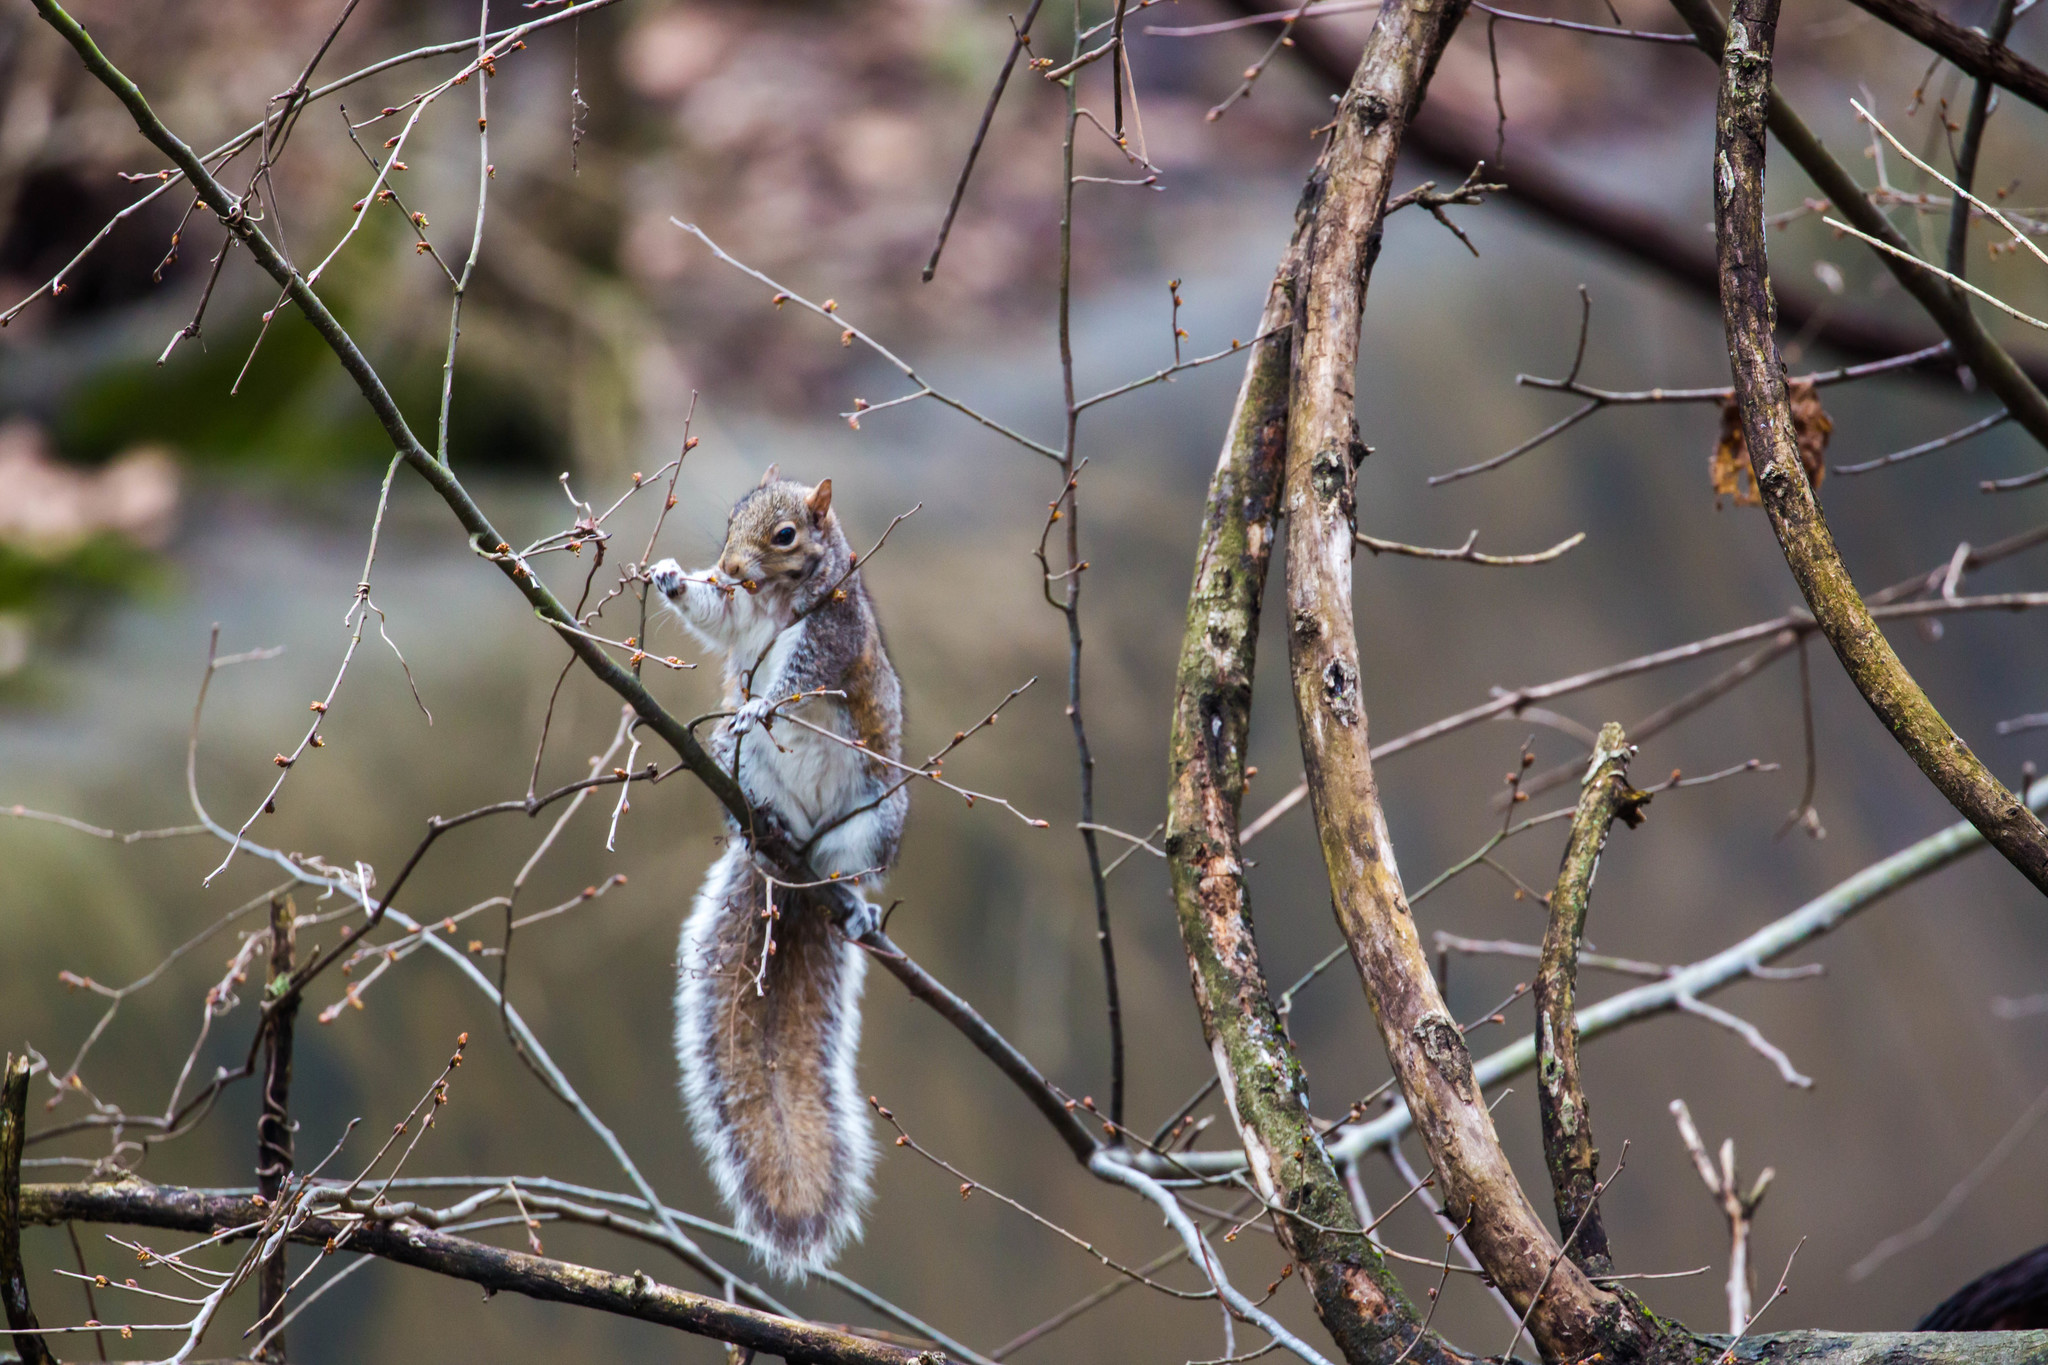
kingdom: Animalia
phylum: Chordata
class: Mammalia
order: Rodentia
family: Sciuridae
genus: Sciurus
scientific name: Sciurus carolinensis
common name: Eastern gray squirrel
